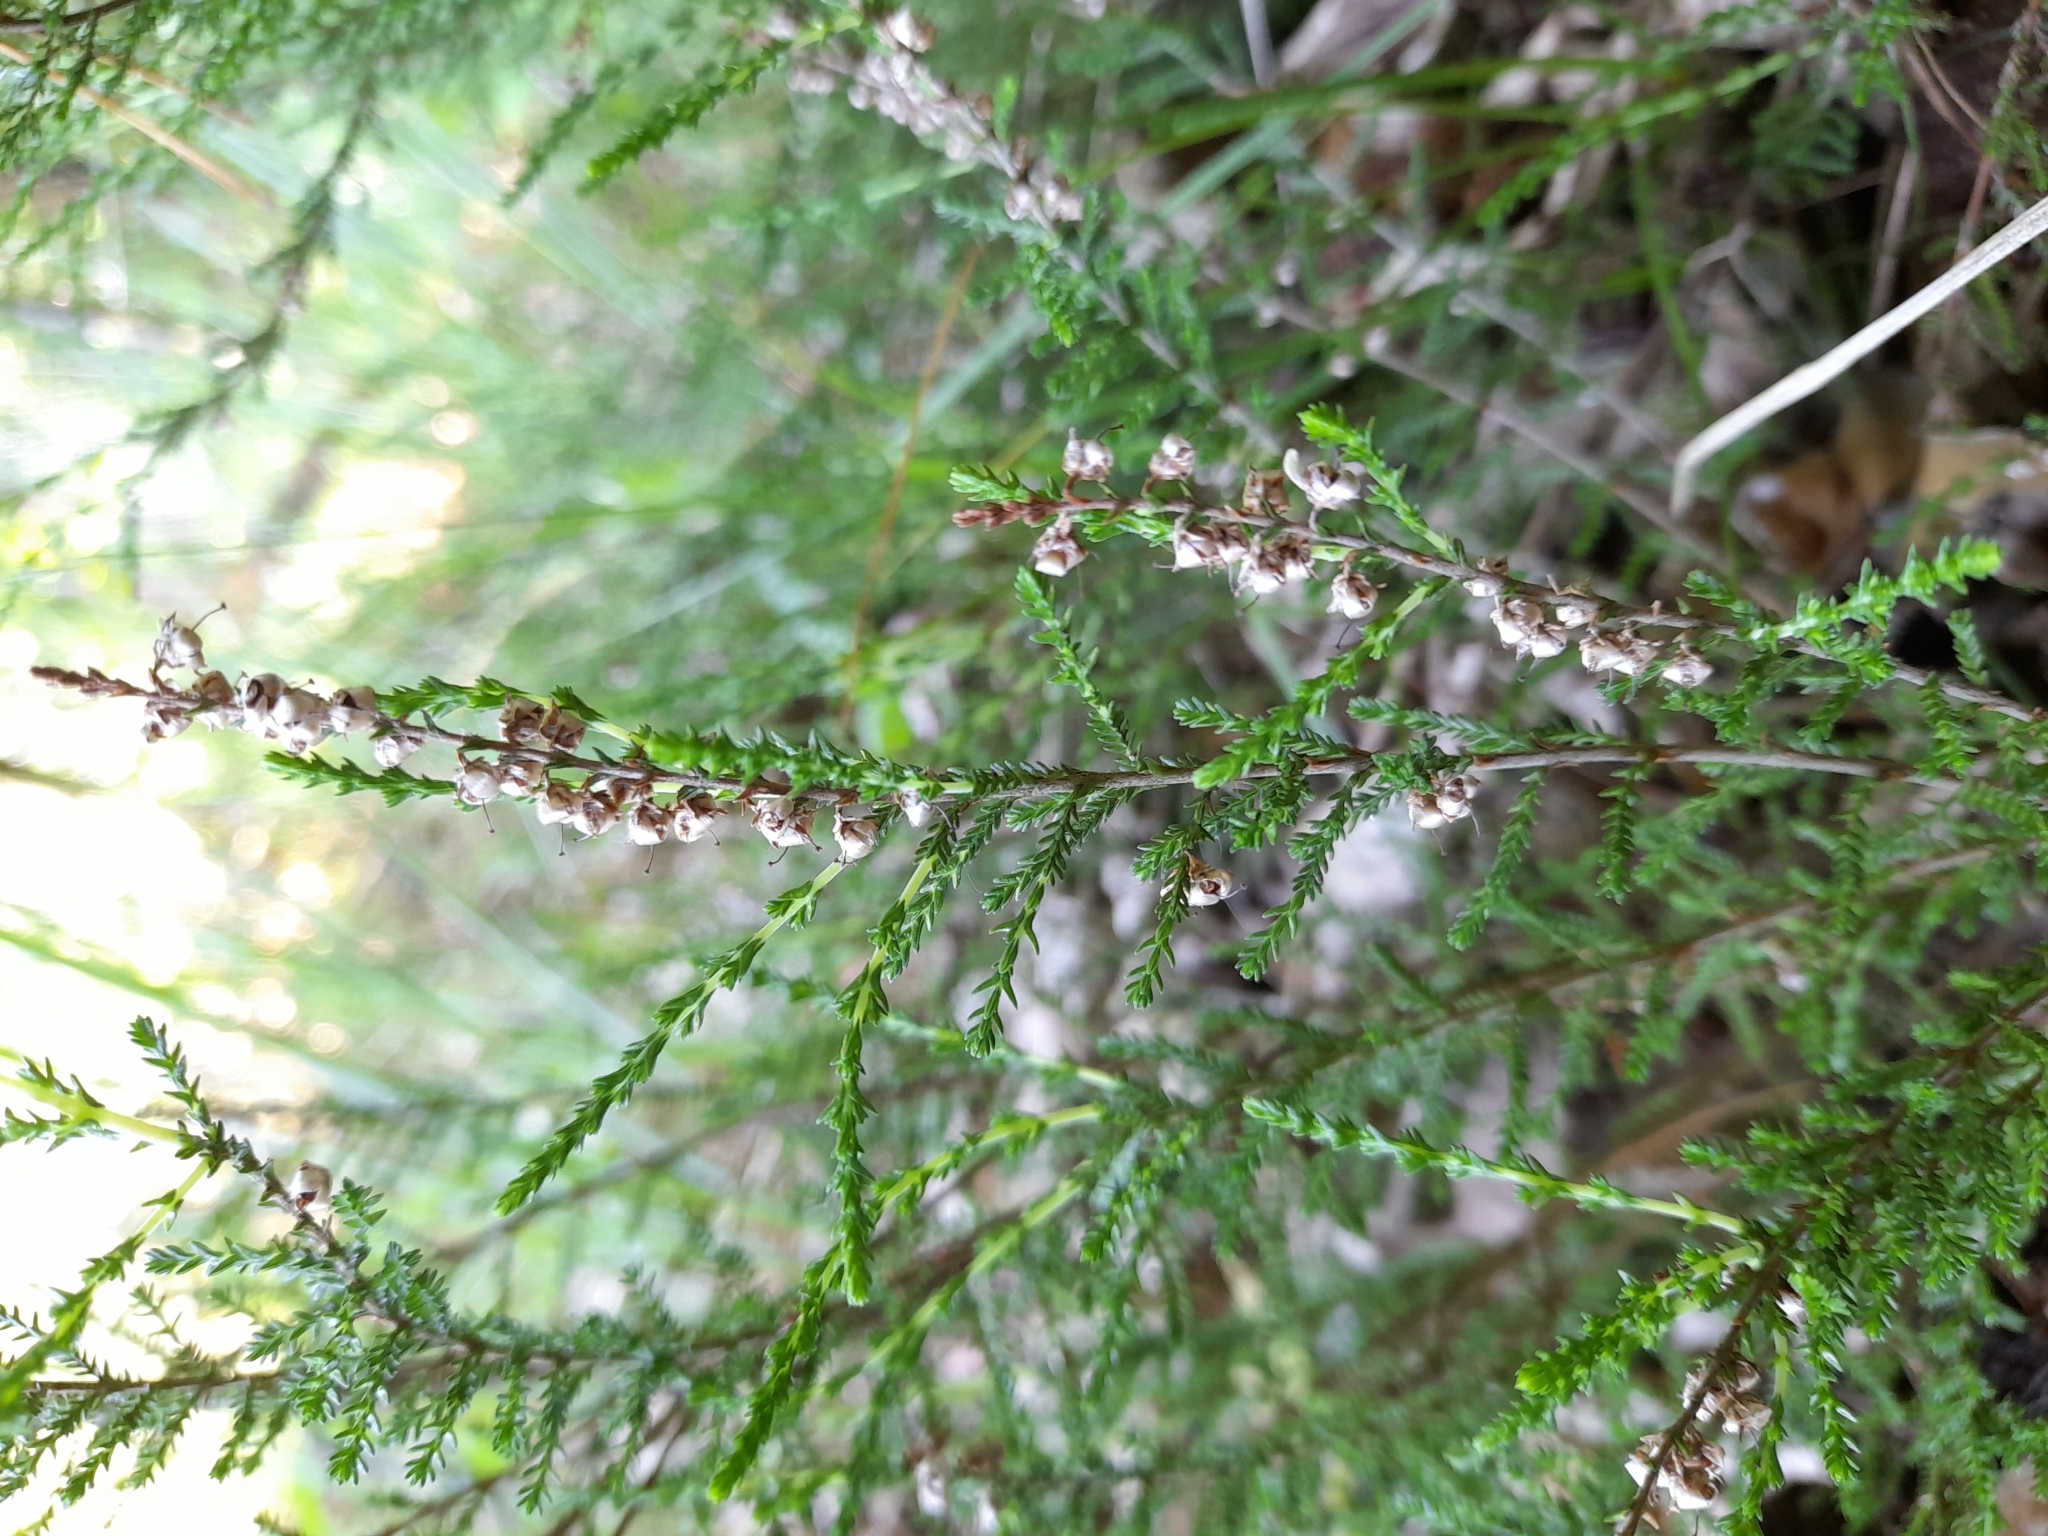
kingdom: Plantae
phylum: Tracheophyta
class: Magnoliopsida
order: Ericales
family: Ericaceae
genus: Calluna
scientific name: Calluna vulgaris
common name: Heather
